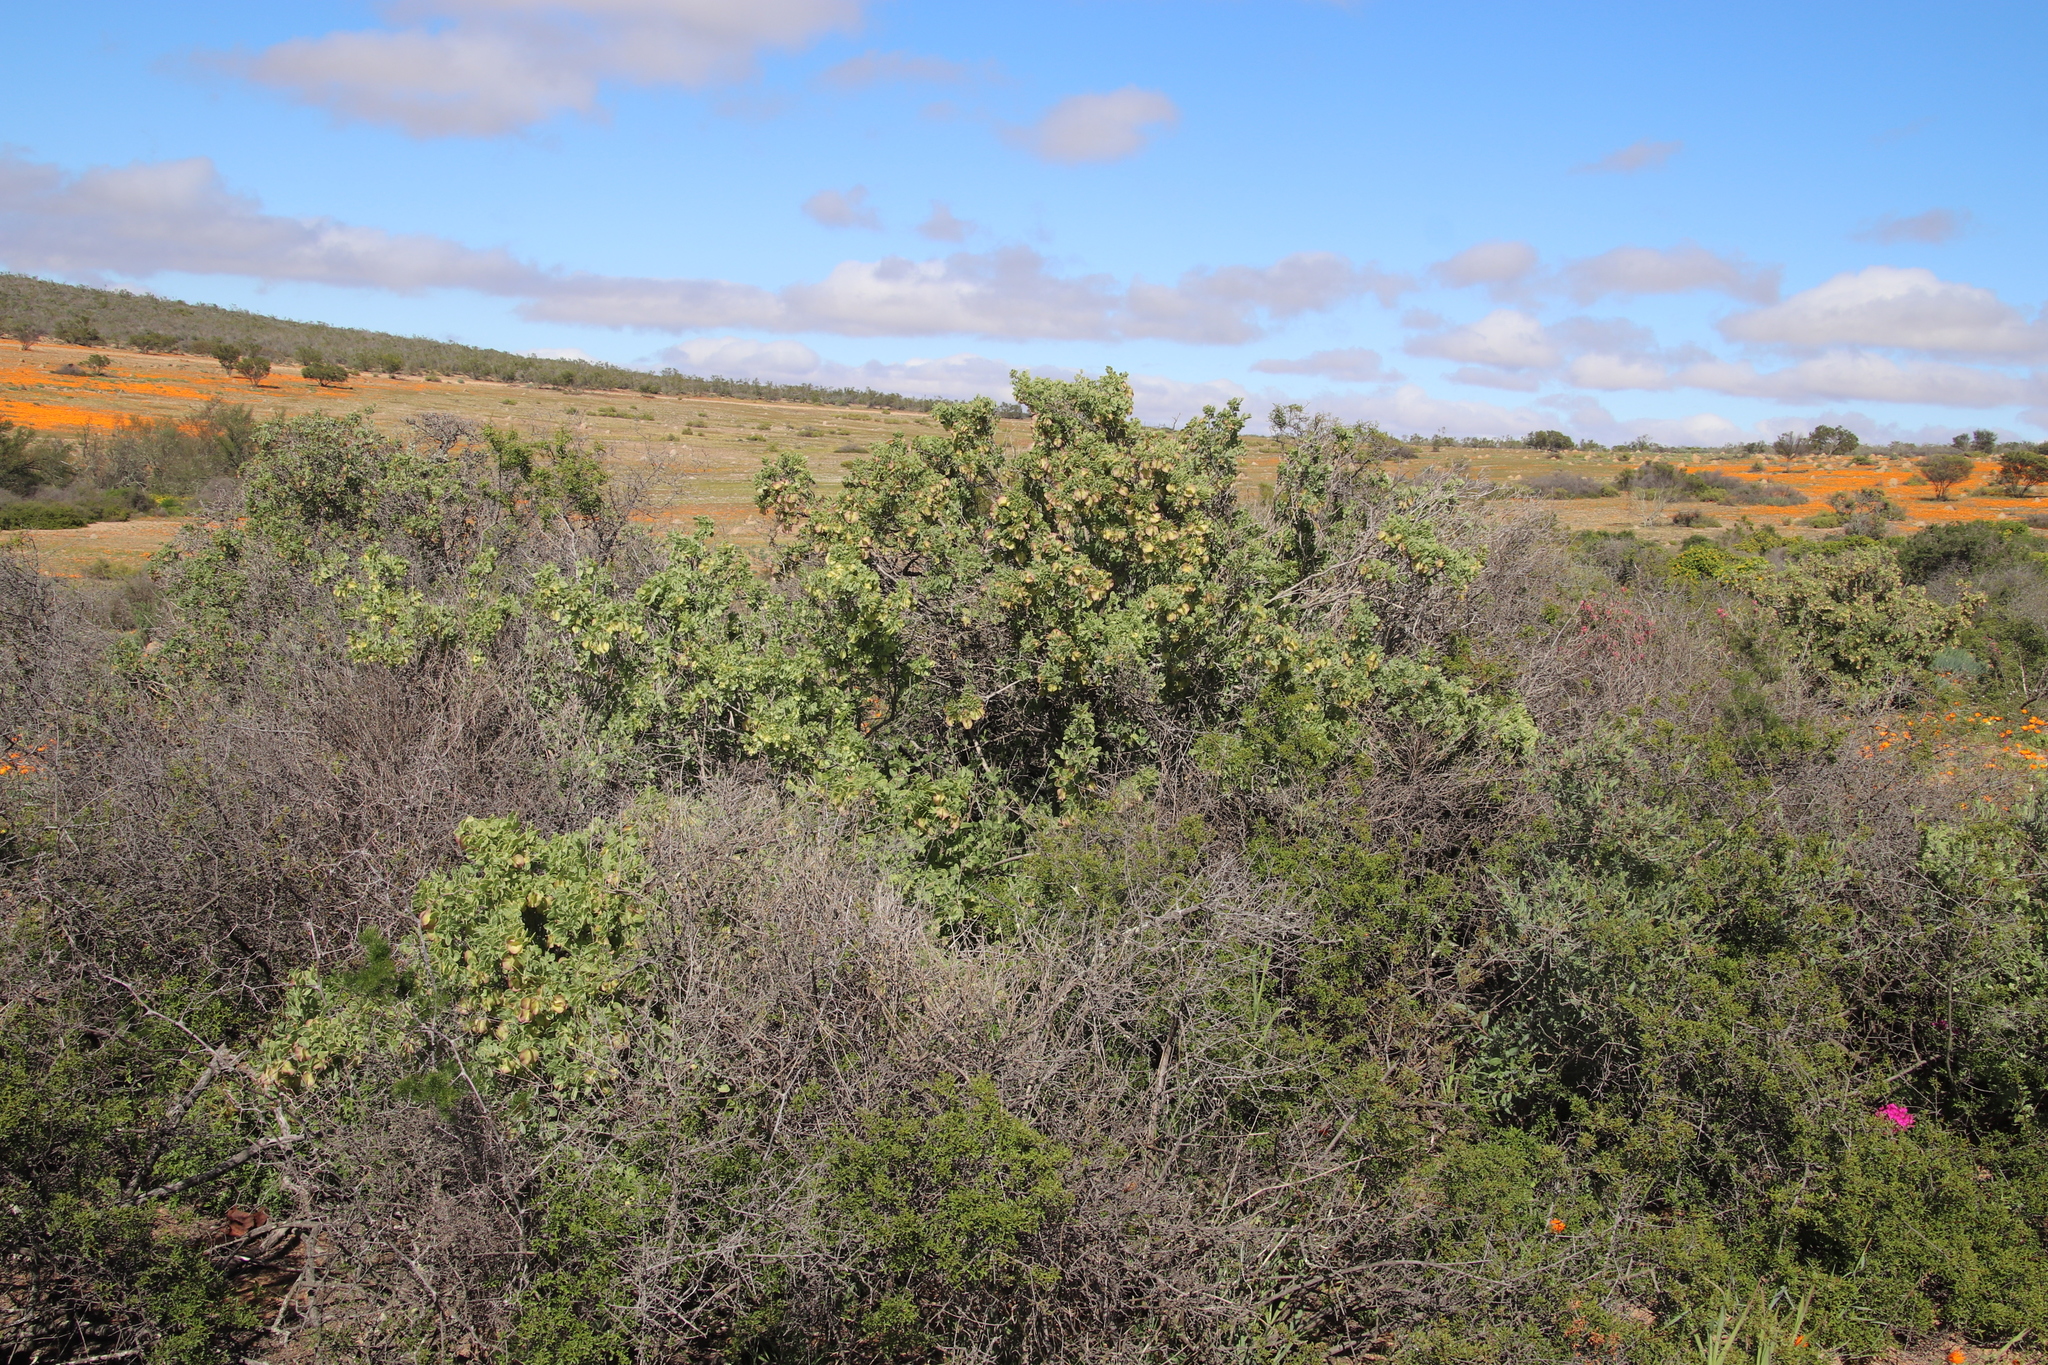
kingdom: Plantae
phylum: Tracheophyta
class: Magnoliopsida
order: Zygophyllales
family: Zygophyllaceae
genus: Roepera
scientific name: Roepera morgsana
